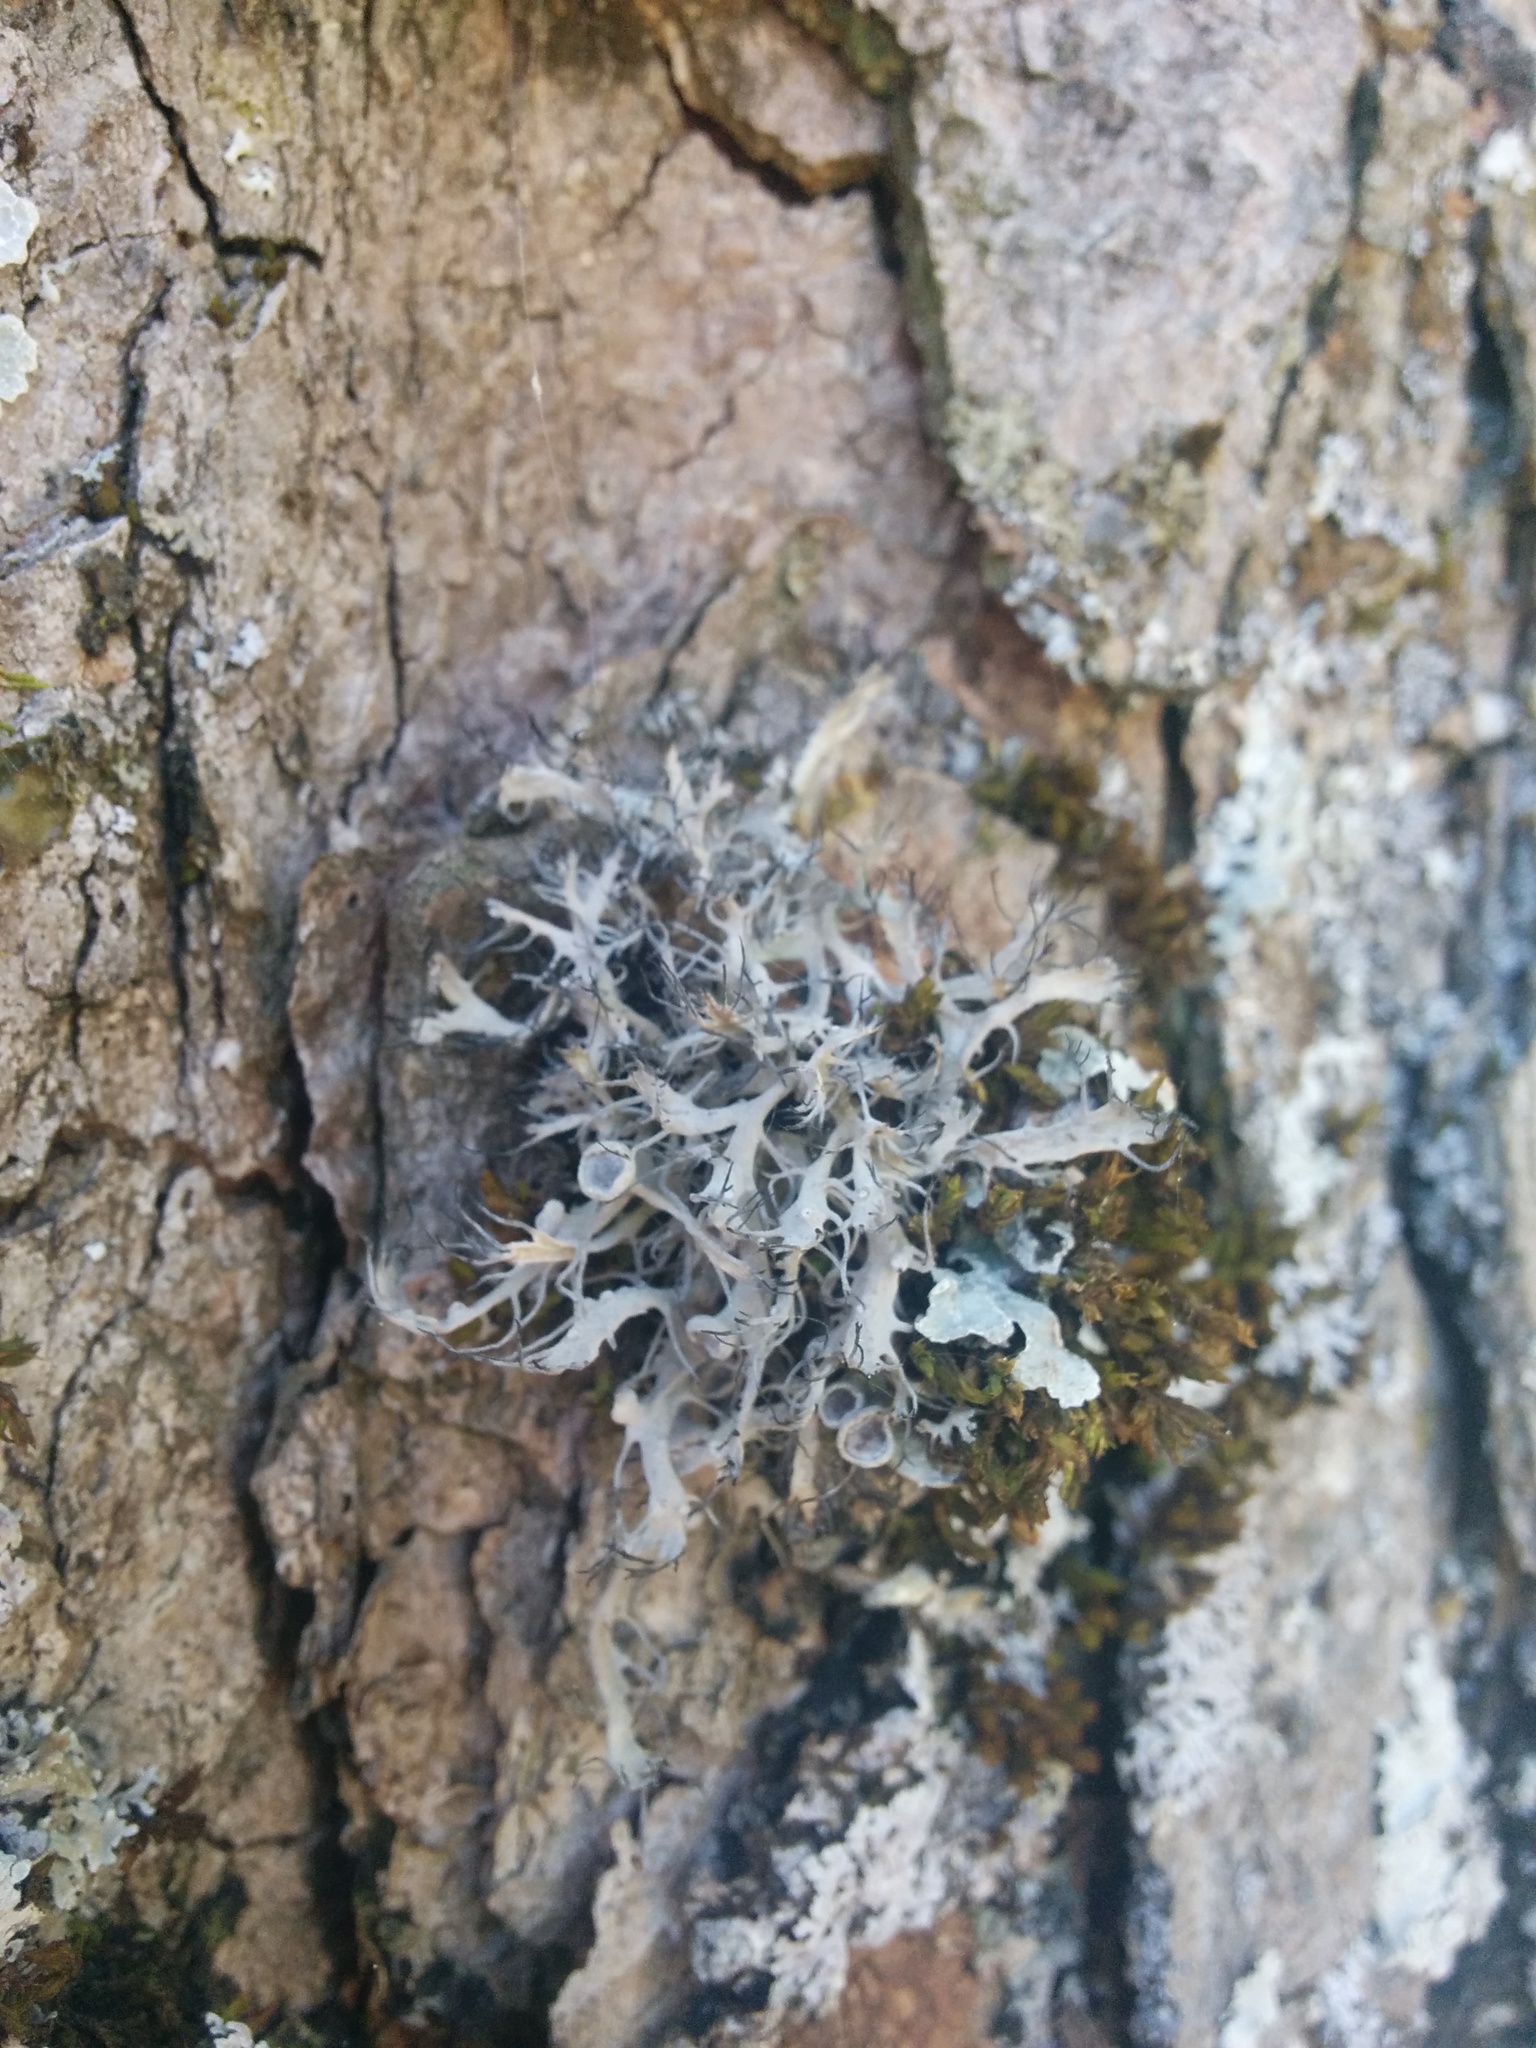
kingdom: Fungi
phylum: Ascomycota
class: Lecanoromycetes
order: Caliciales
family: Physciaceae
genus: Anaptychia
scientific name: Anaptychia ciliaris
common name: Great ciliated lichen
